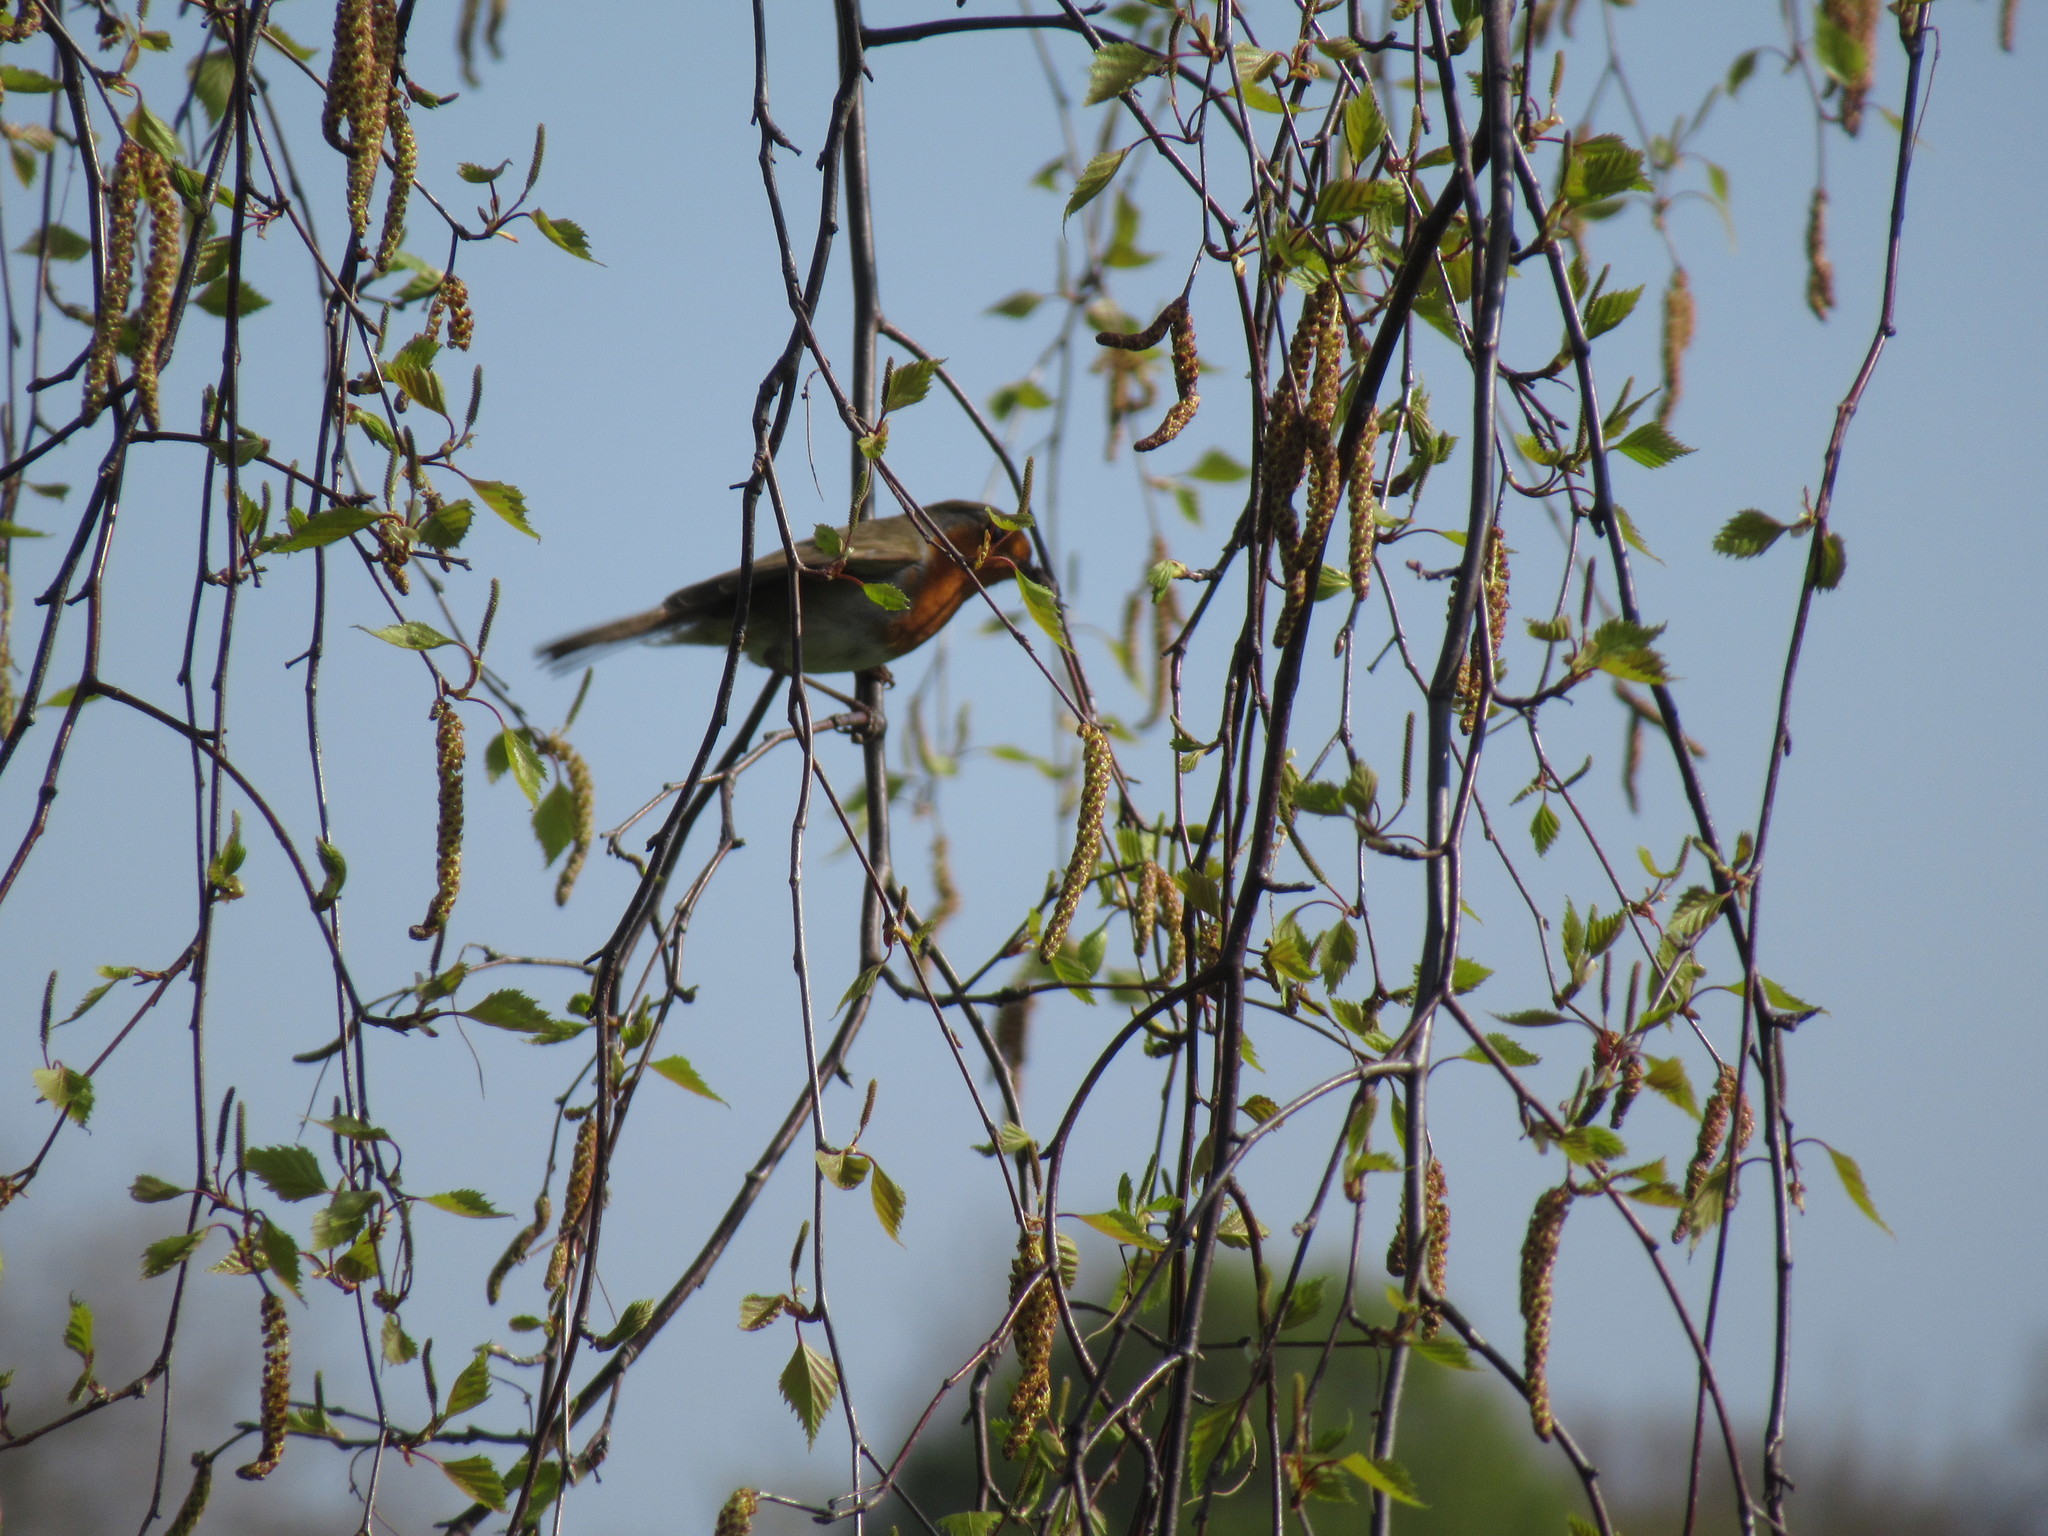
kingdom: Animalia
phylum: Chordata
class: Aves
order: Passeriformes
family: Muscicapidae
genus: Erithacus
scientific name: Erithacus rubecula
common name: European robin
